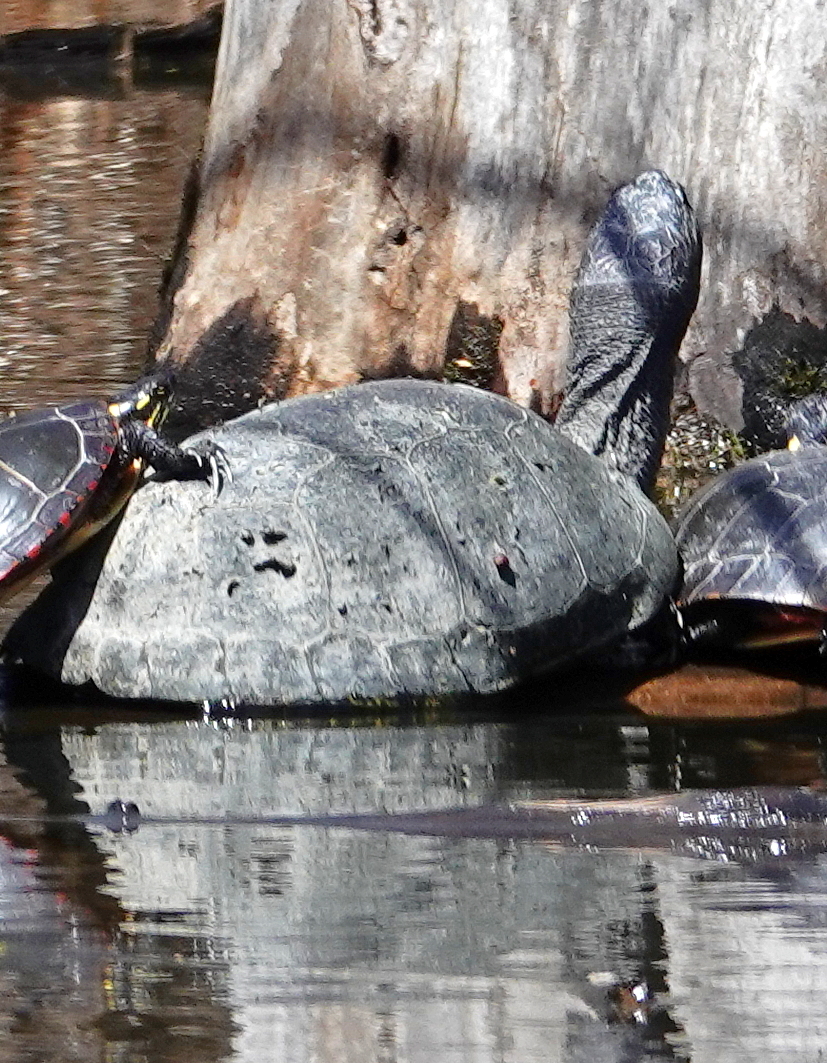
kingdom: Animalia
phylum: Chordata
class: Testudines
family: Emydidae
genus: Emys
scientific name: Emys blandingii
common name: Blanding's turtle
